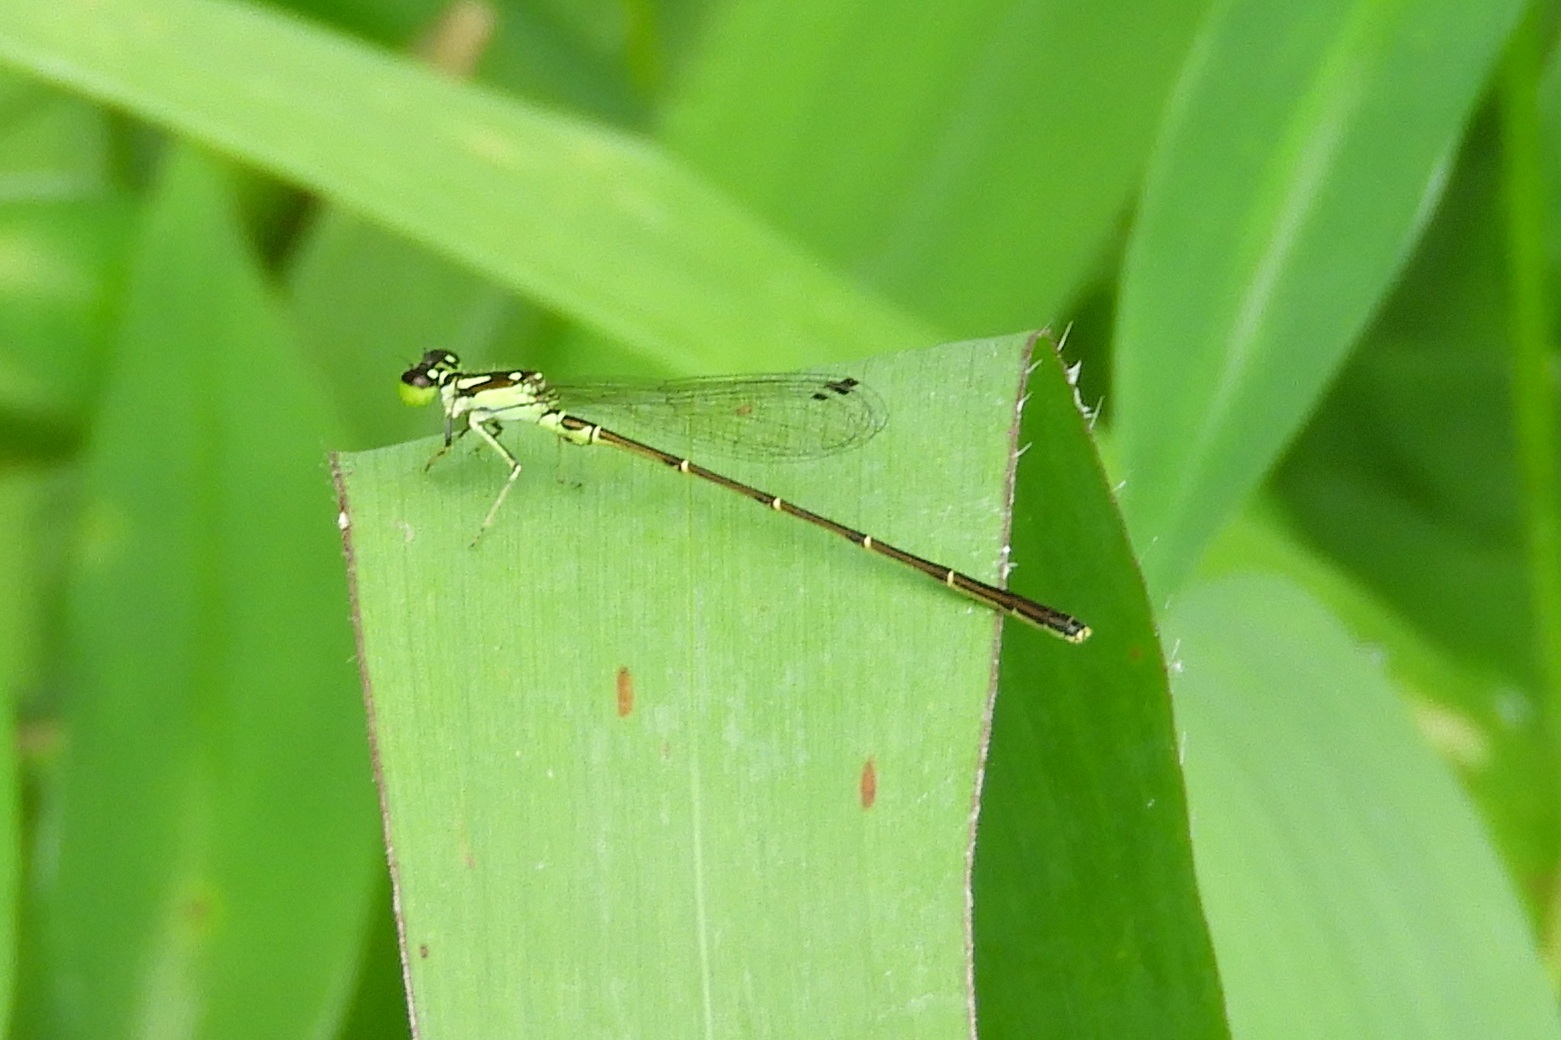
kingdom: Animalia
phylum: Arthropoda
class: Insecta
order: Odonata
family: Coenagrionidae
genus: Ischnura
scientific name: Ischnura posita
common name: Fragile forktail
